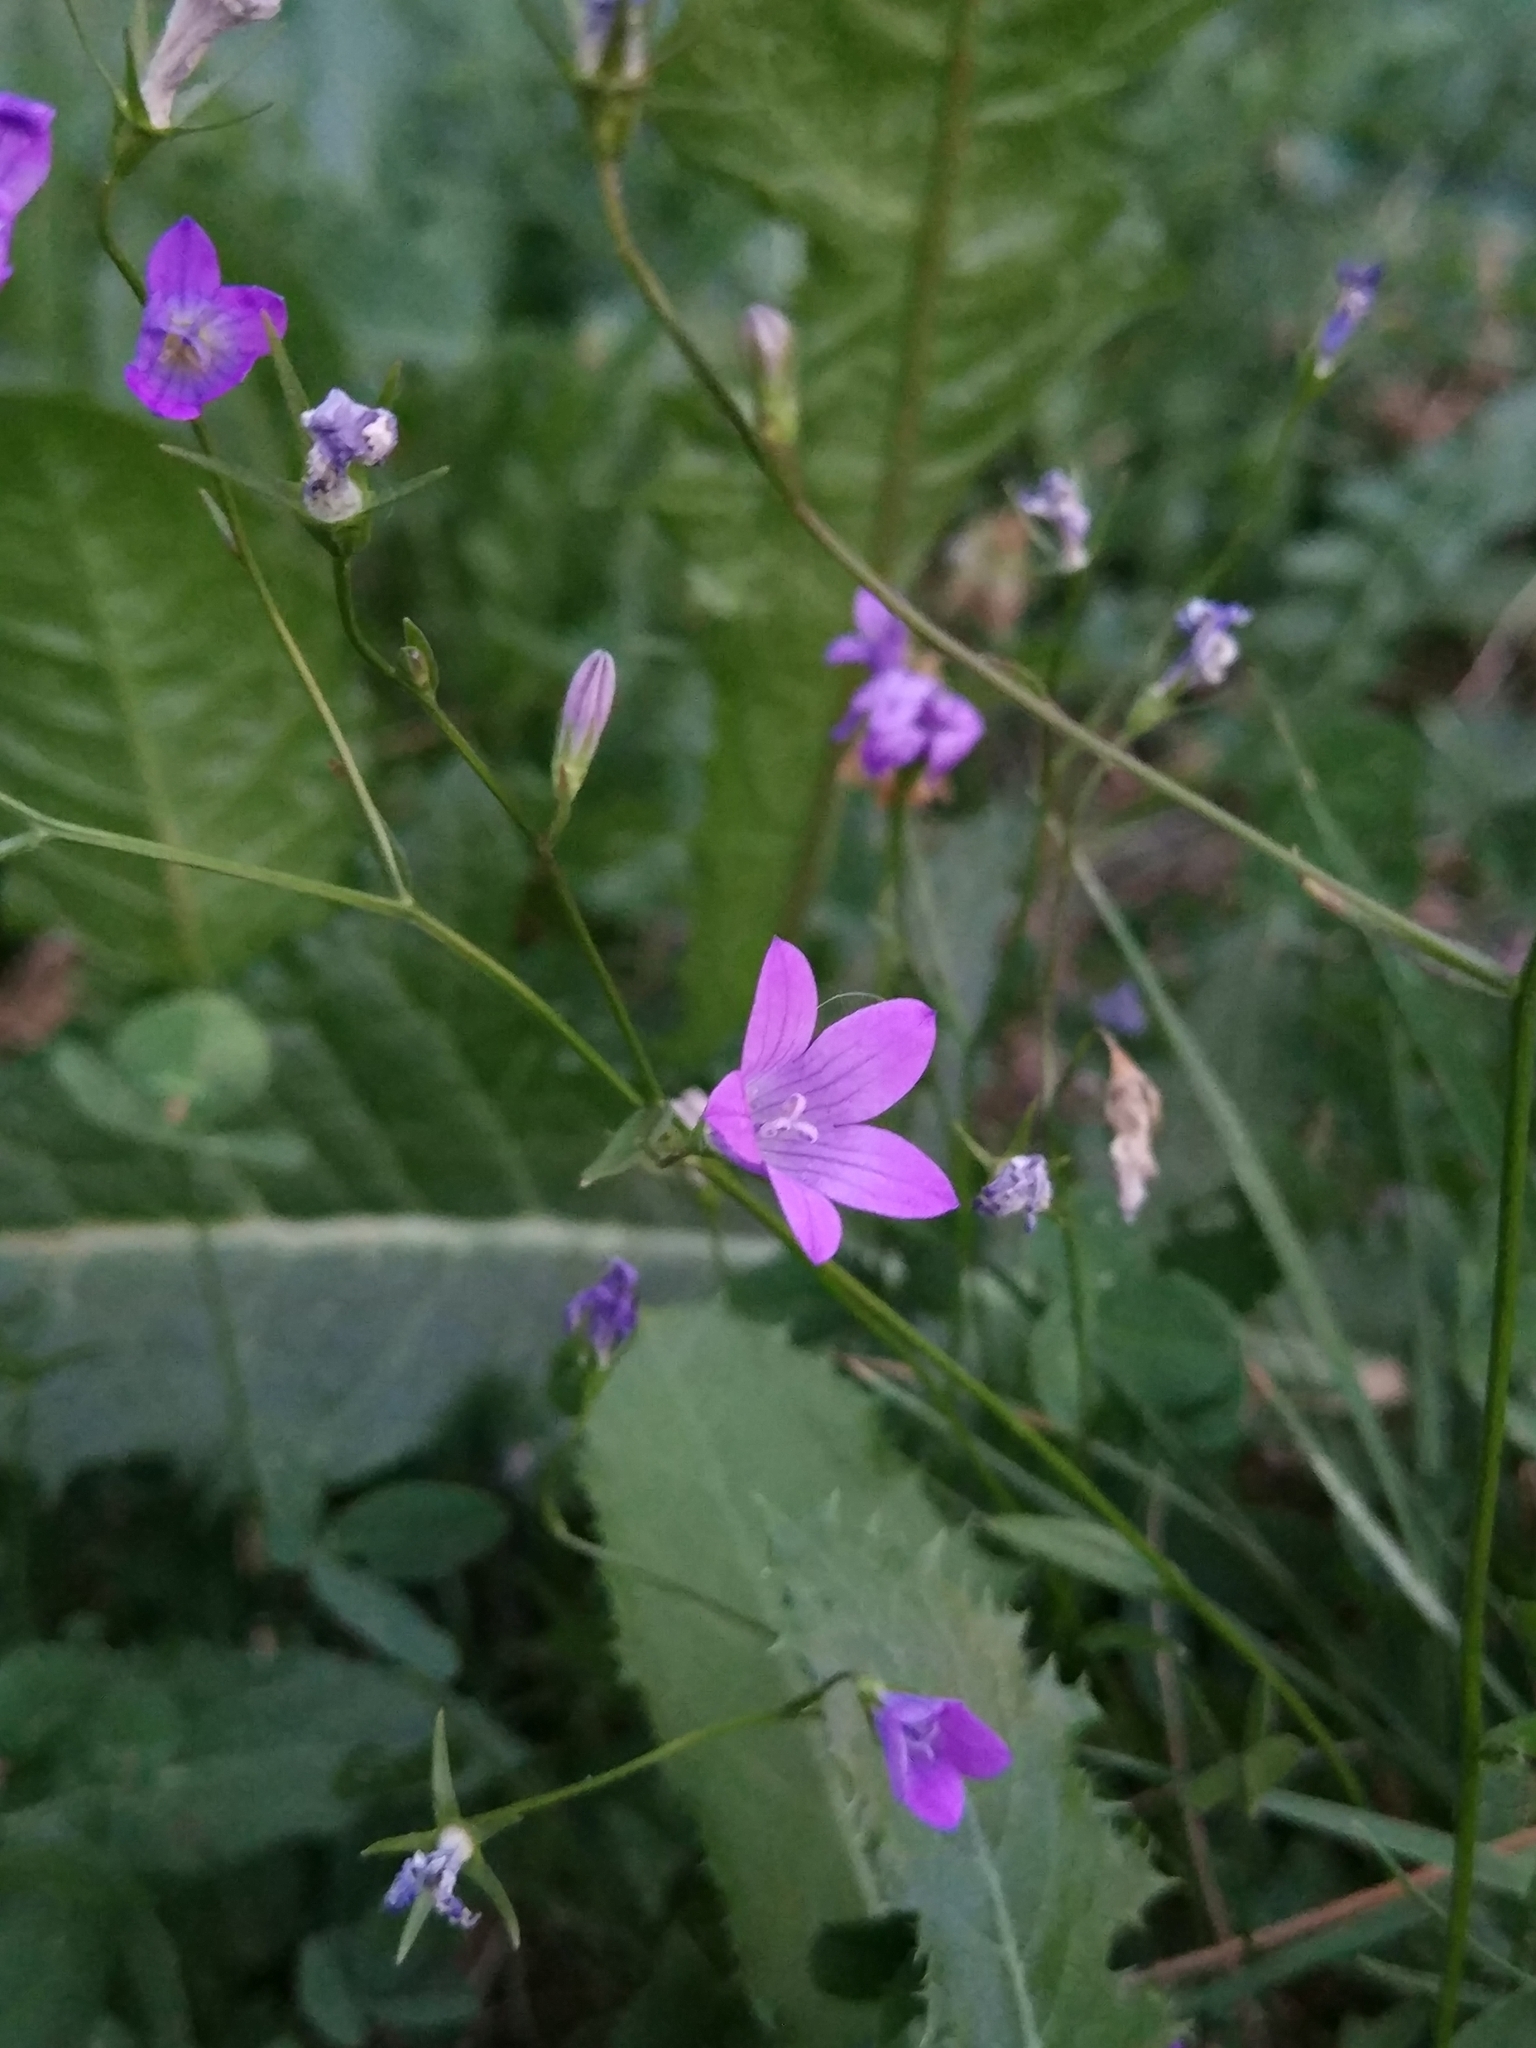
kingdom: Plantae
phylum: Tracheophyta
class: Magnoliopsida
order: Asterales
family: Campanulaceae
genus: Campanula
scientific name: Campanula patula
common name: Spreading bellflower
